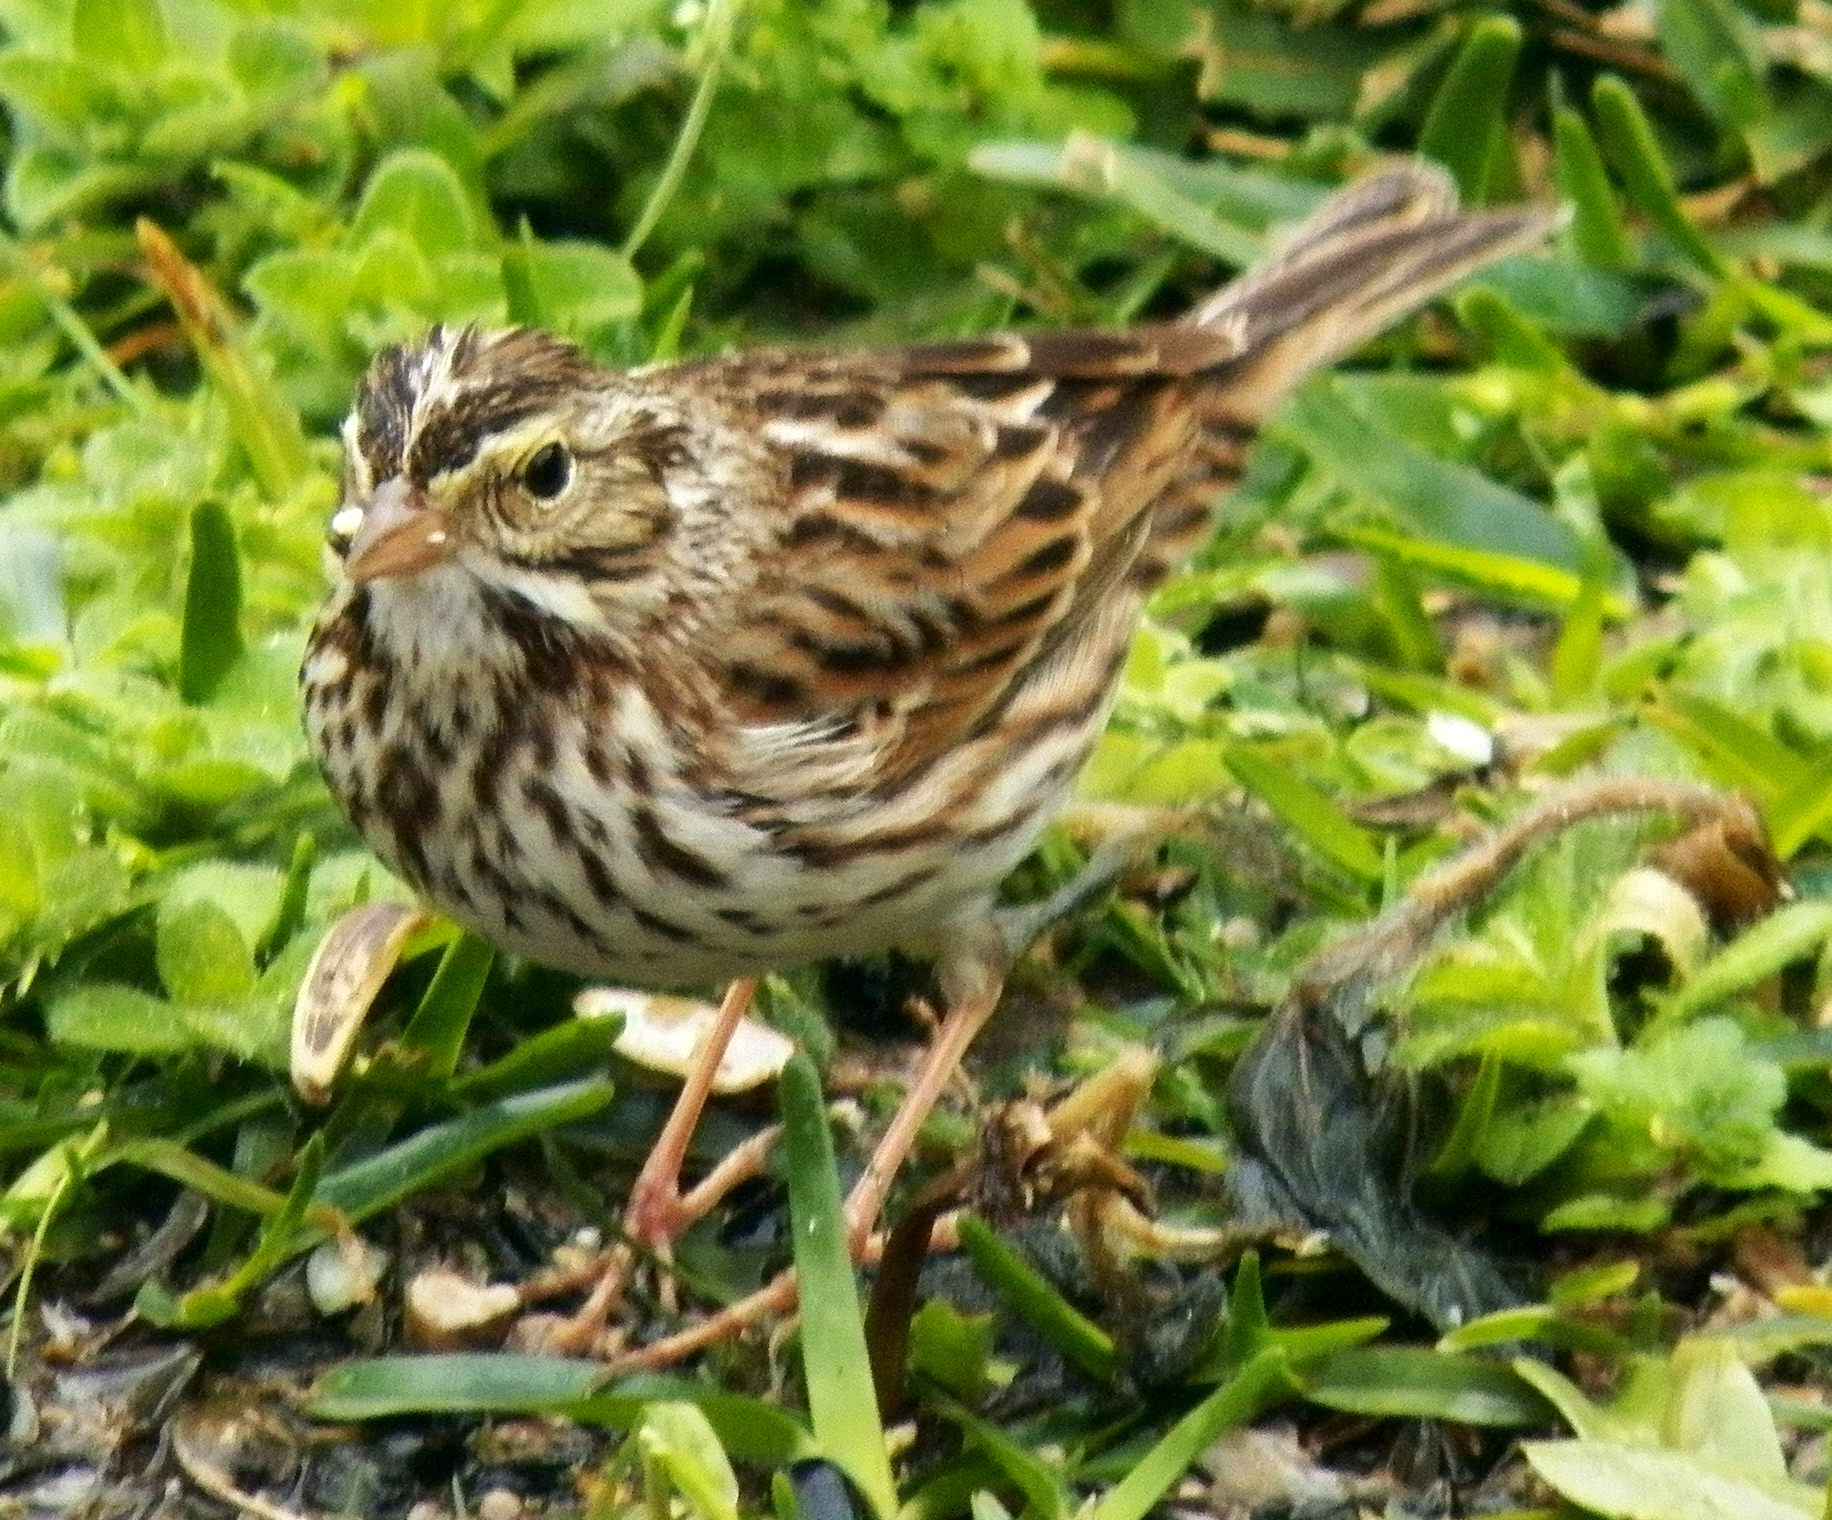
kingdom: Animalia
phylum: Chordata
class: Aves
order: Passeriformes
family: Passerellidae
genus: Passerculus
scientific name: Passerculus sandwichensis
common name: Savannah sparrow
